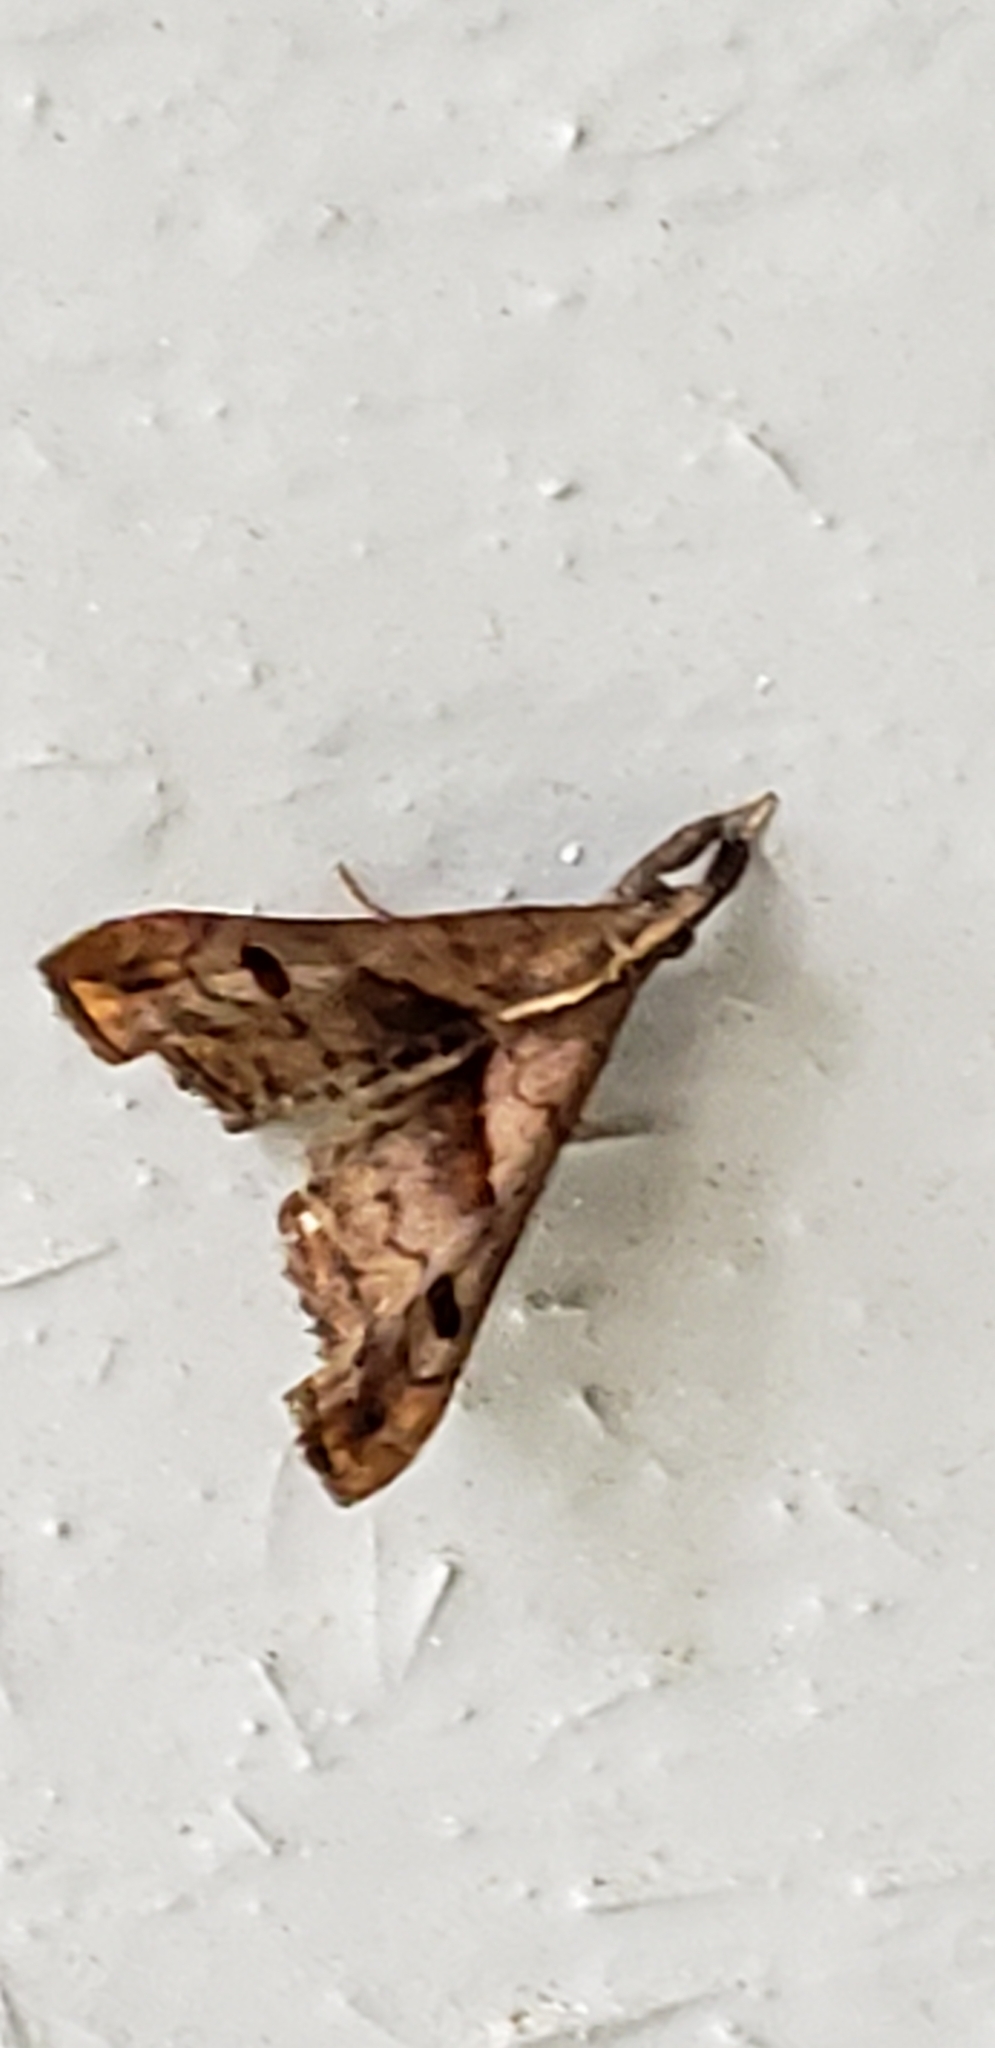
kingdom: Animalia
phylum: Arthropoda
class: Insecta
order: Lepidoptera
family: Erebidae
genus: Palthis
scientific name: Palthis angulalis
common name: Dark-spotted palthis moth
